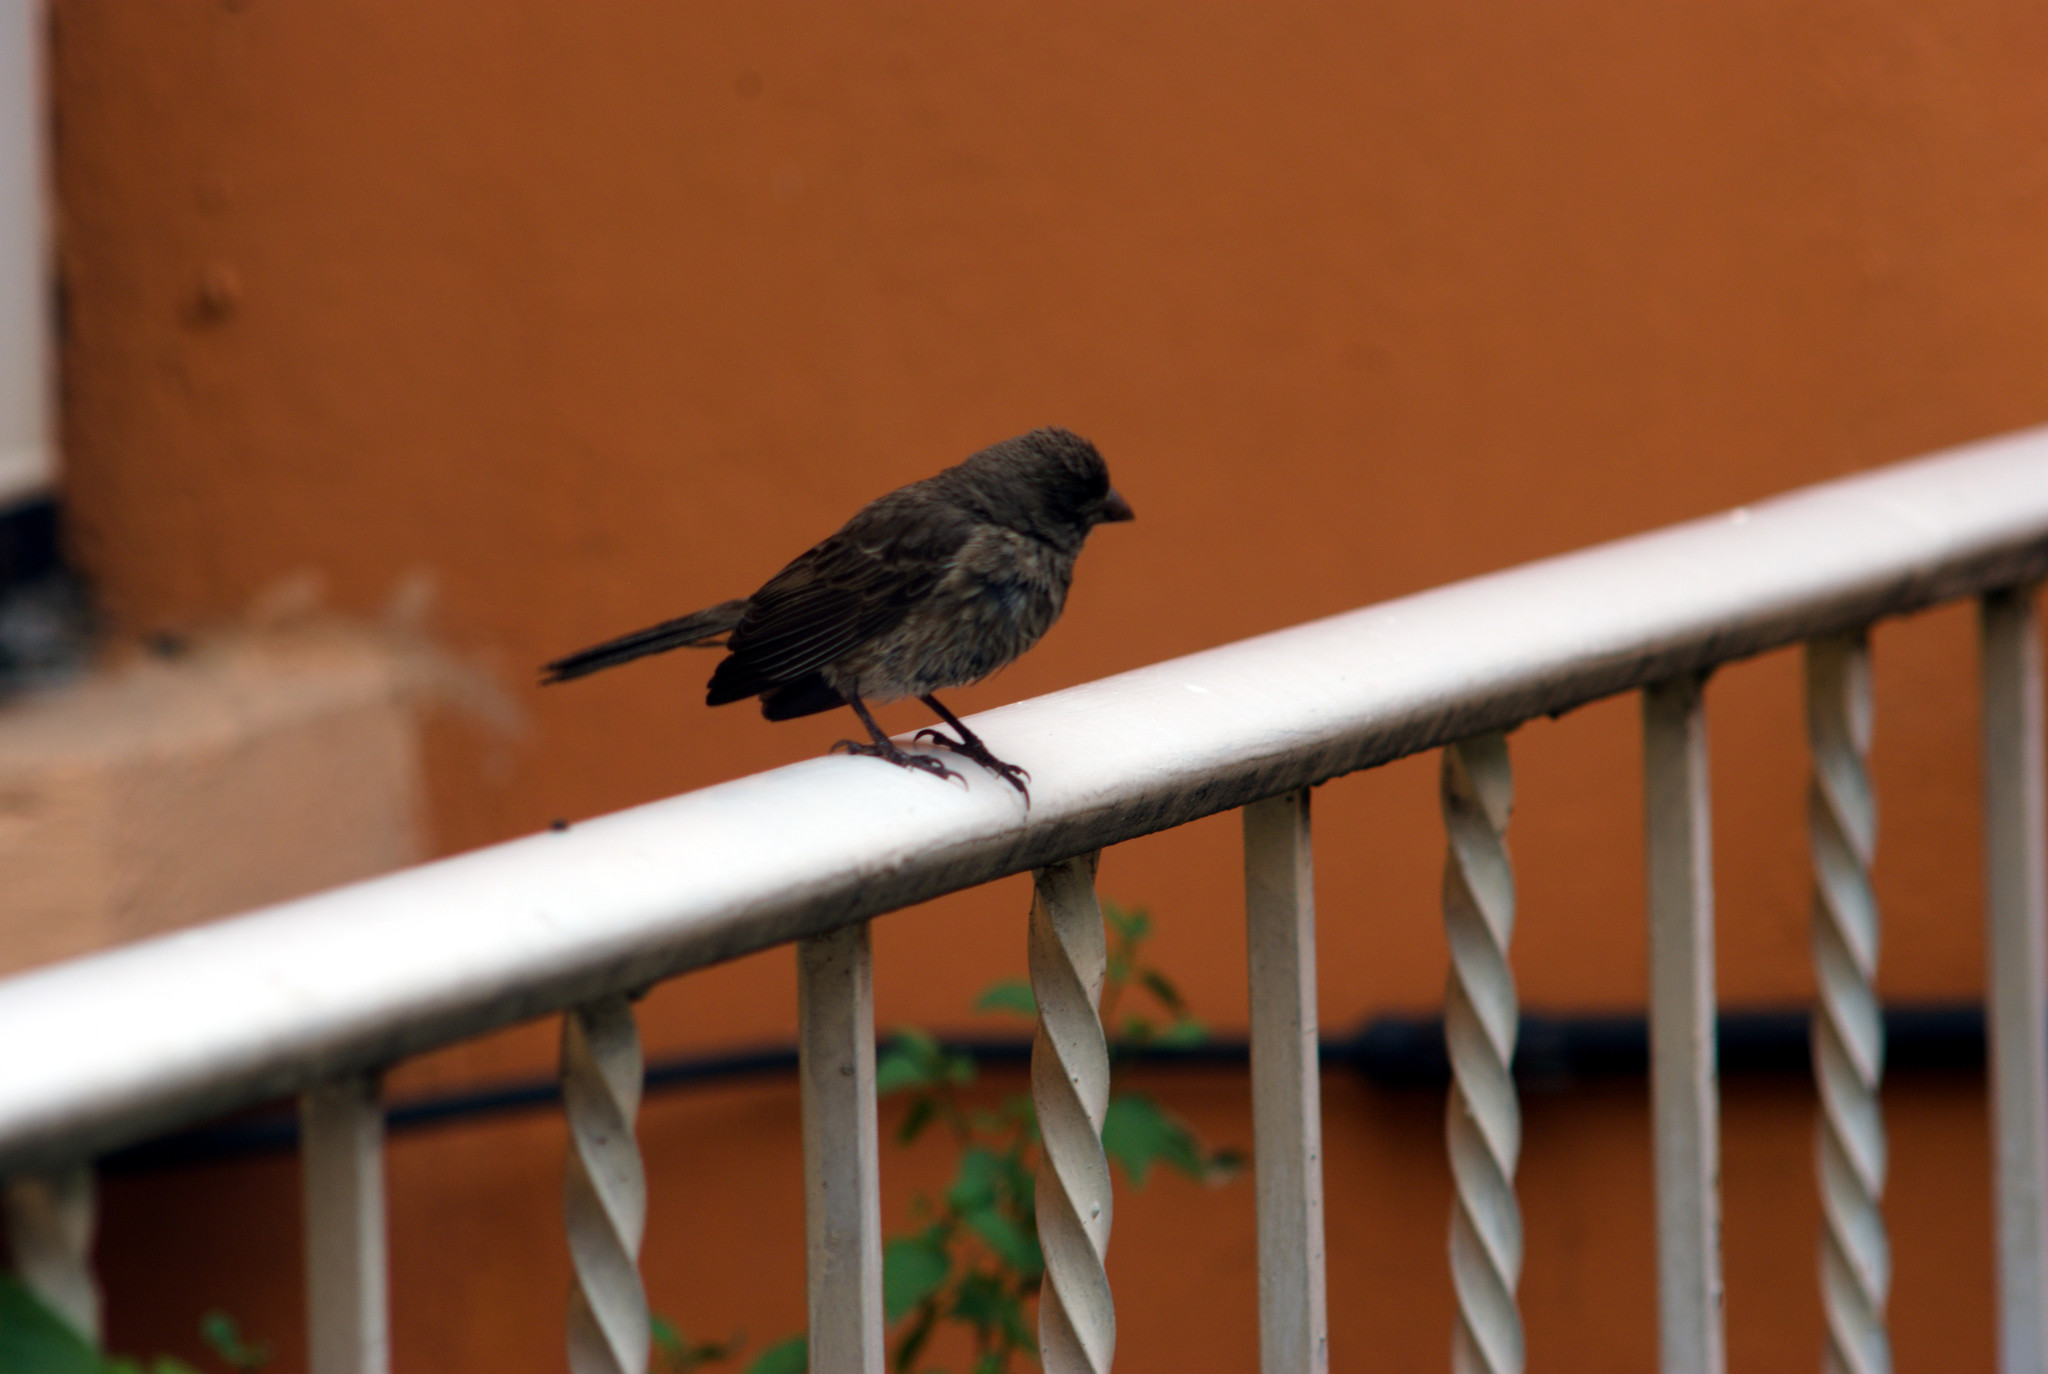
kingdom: Animalia
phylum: Chordata
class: Aves
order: Passeriformes
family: Fringillidae
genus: Haemorhous
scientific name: Haemorhous mexicanus
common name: House finch
